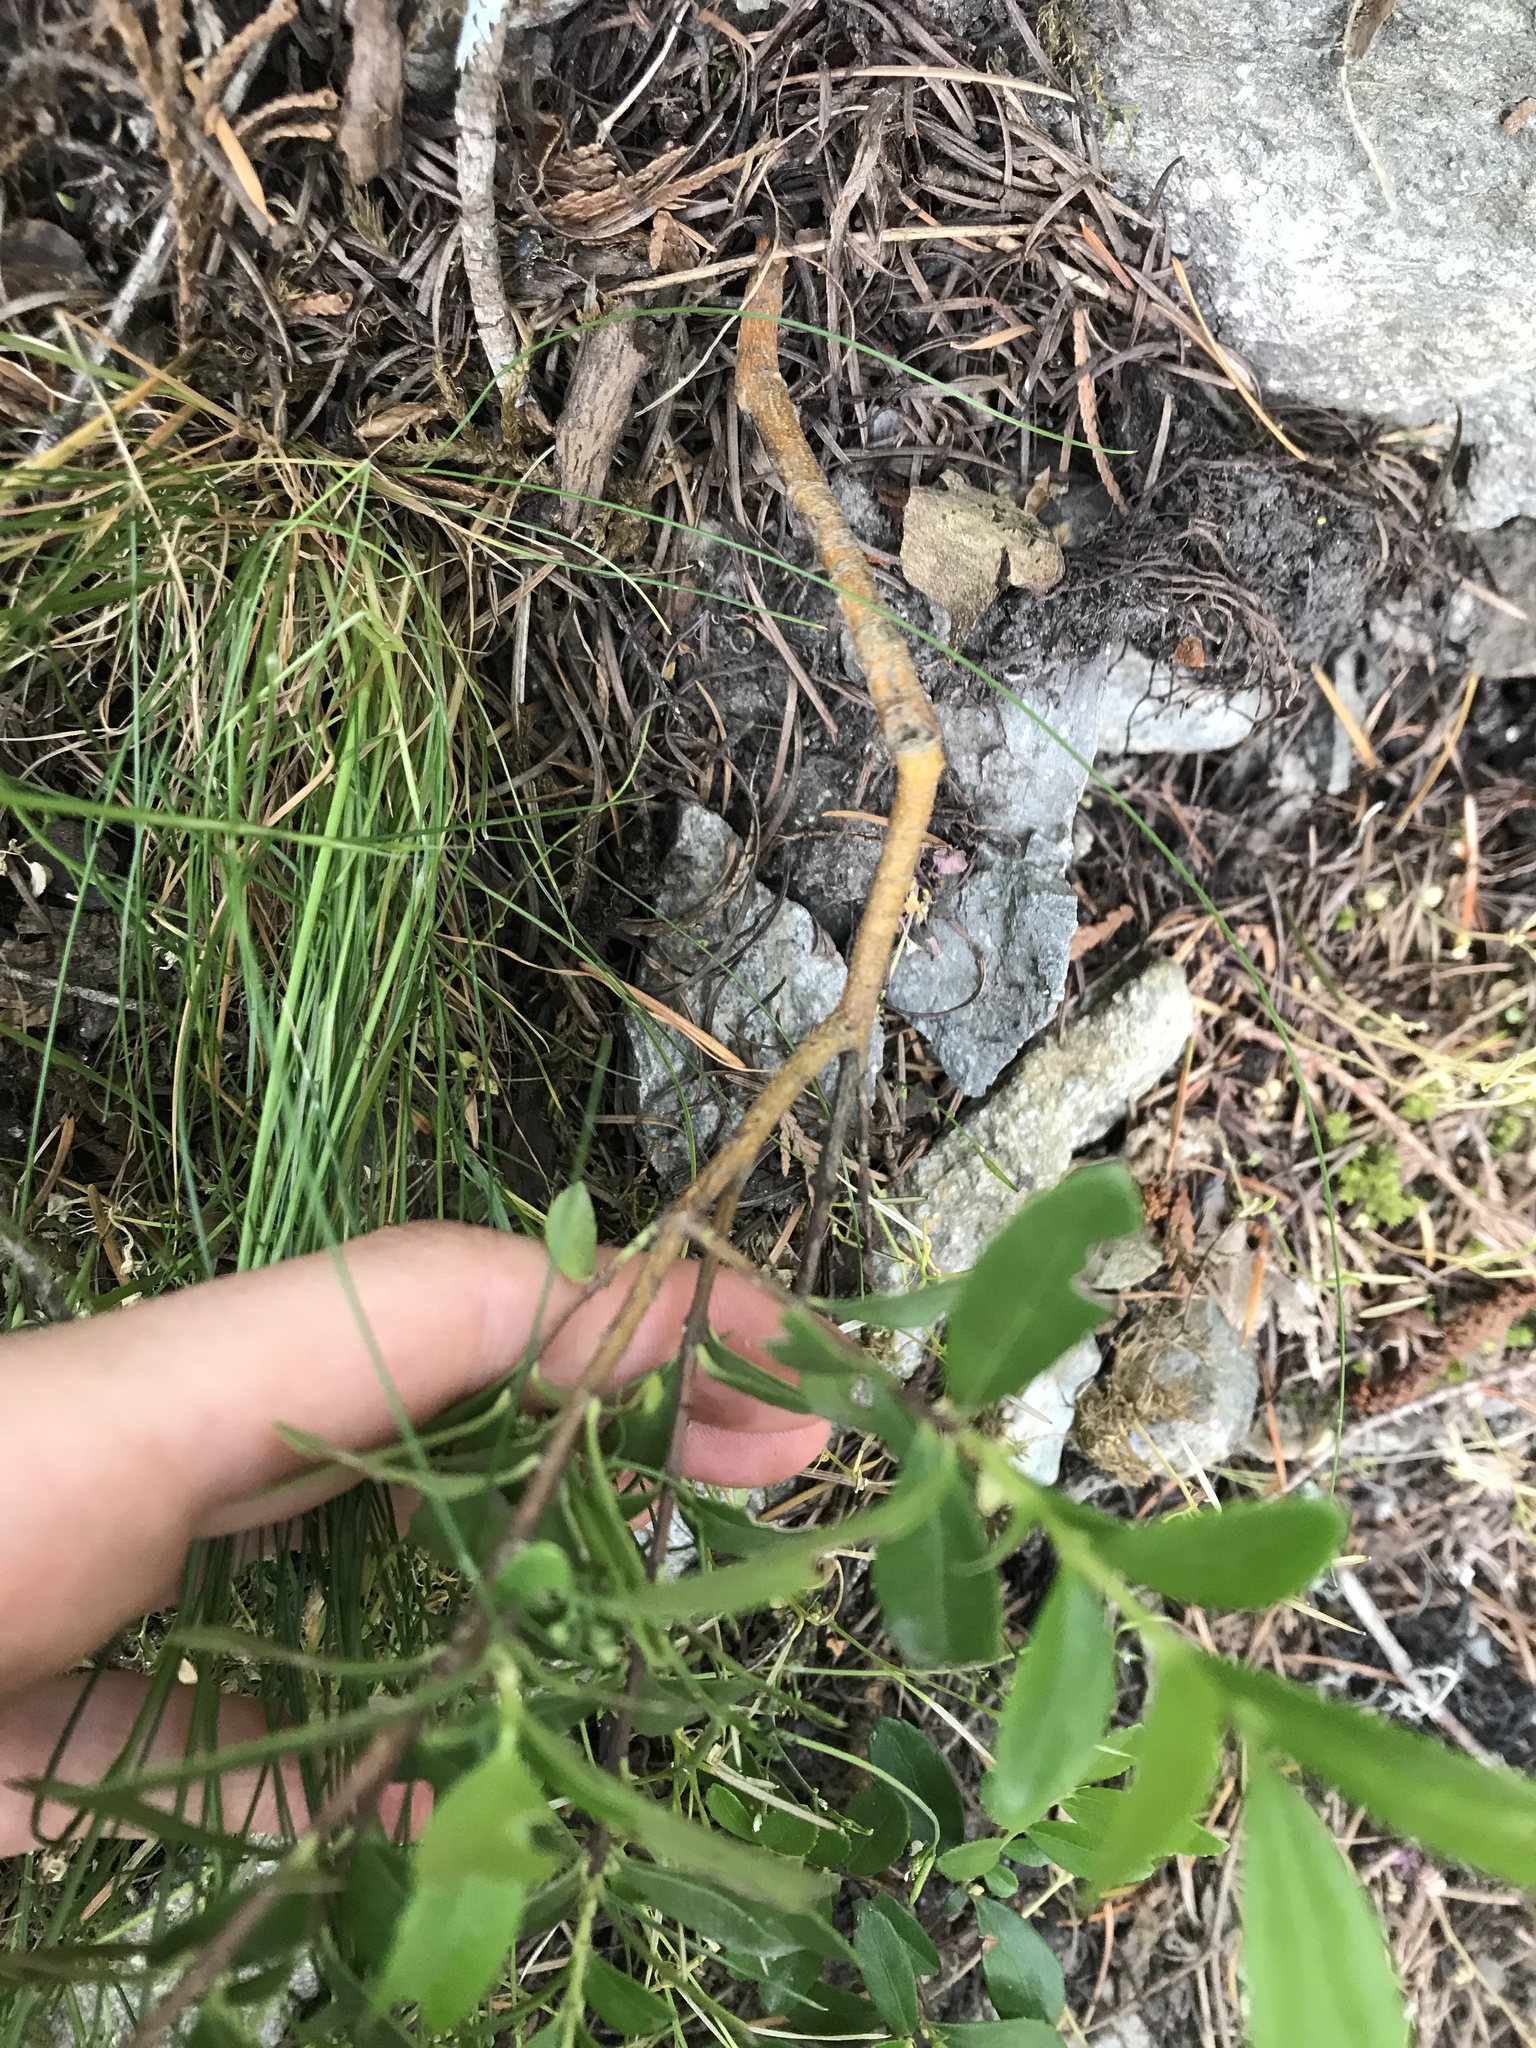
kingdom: Plantae
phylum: Tracheophyta
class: Magnoliopsida
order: Celastrales
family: Celastraceae
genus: Paxistima
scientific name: Paxistima myrsinites
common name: Mountain-lover
